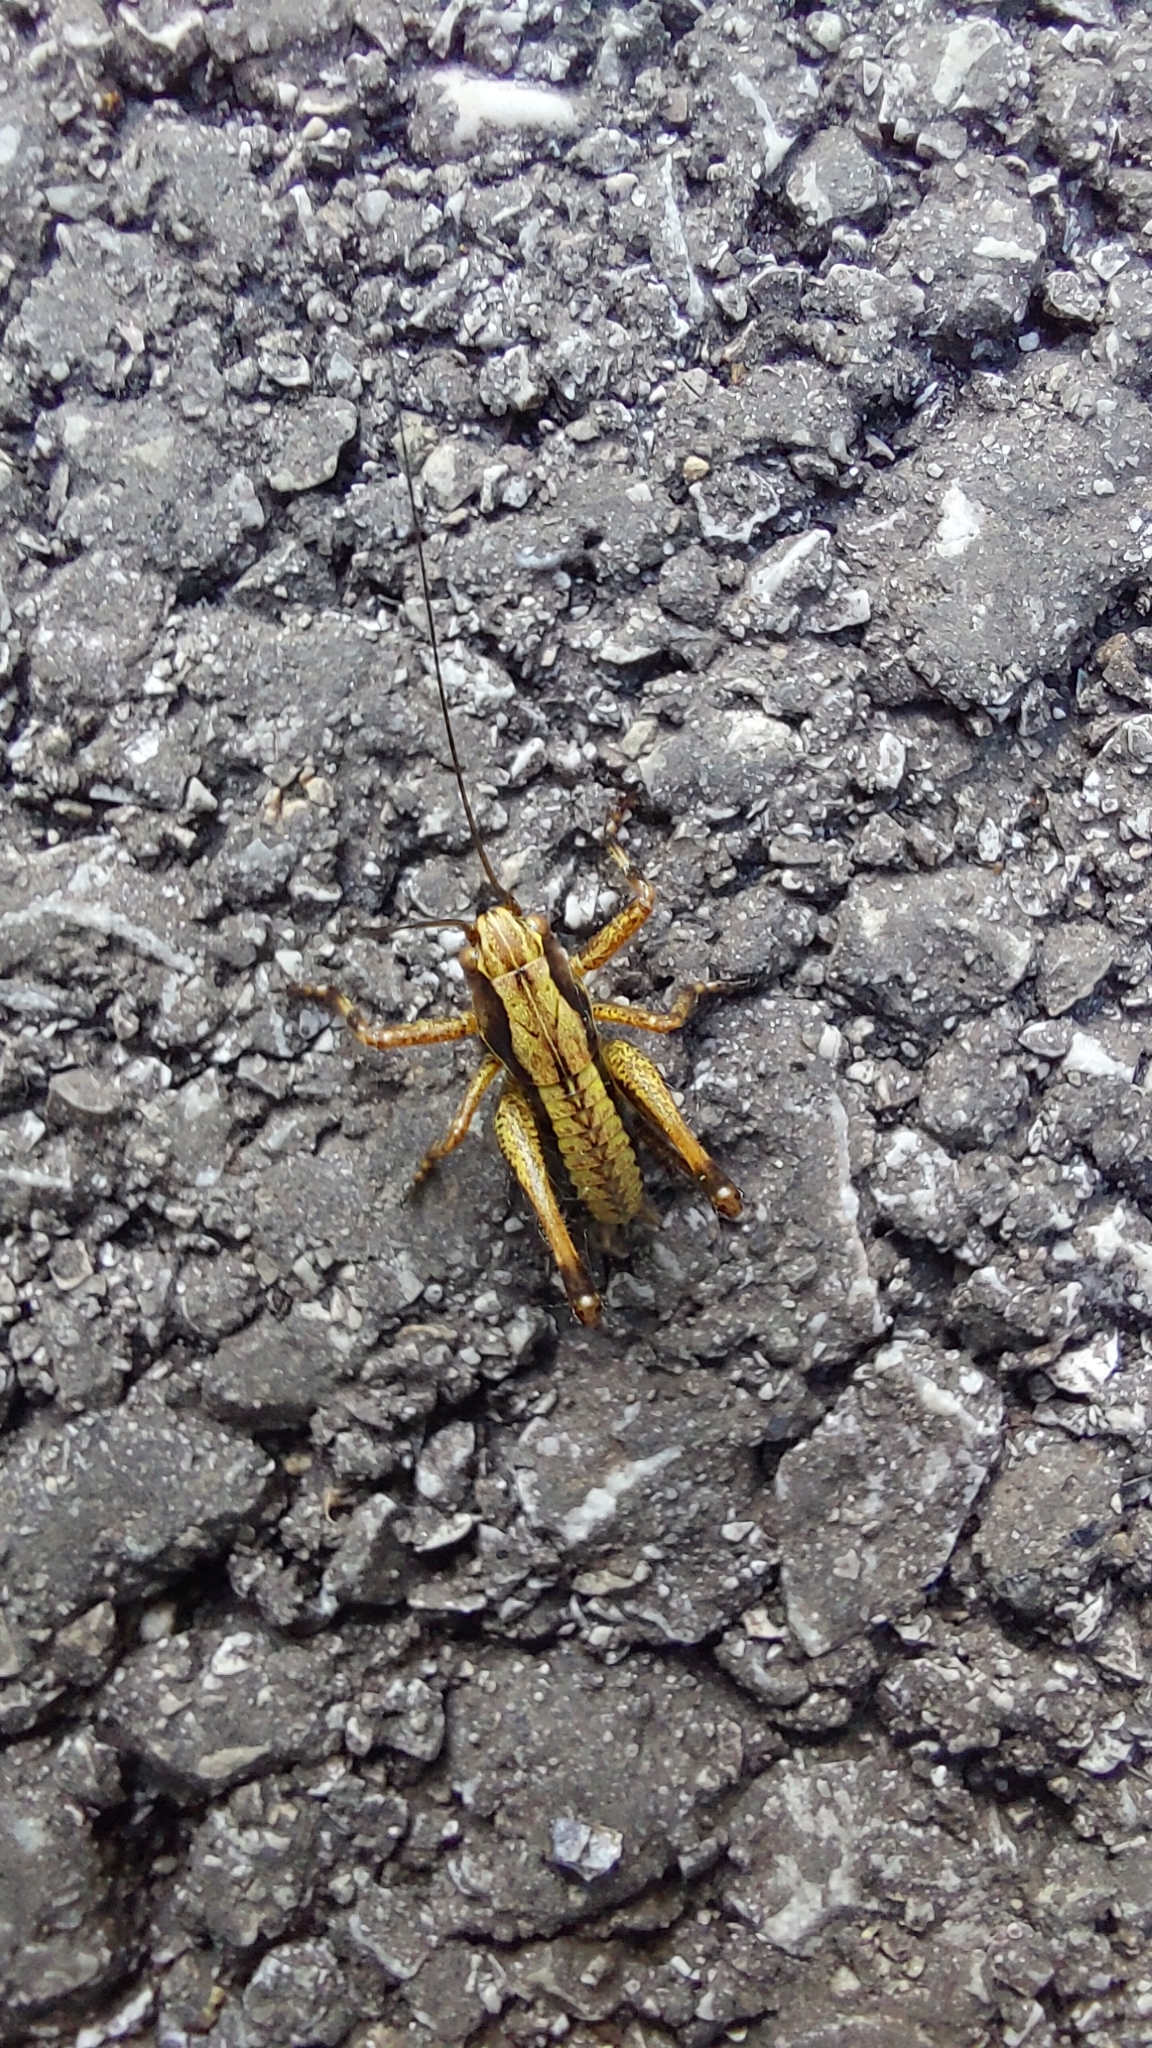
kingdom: Animalia
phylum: Arthropoda
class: Insecta
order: Orthoptera
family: Tettigoniidae
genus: Pholidoptera
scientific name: Pholidoptera griseoaptera
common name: Dark bush-cricket
